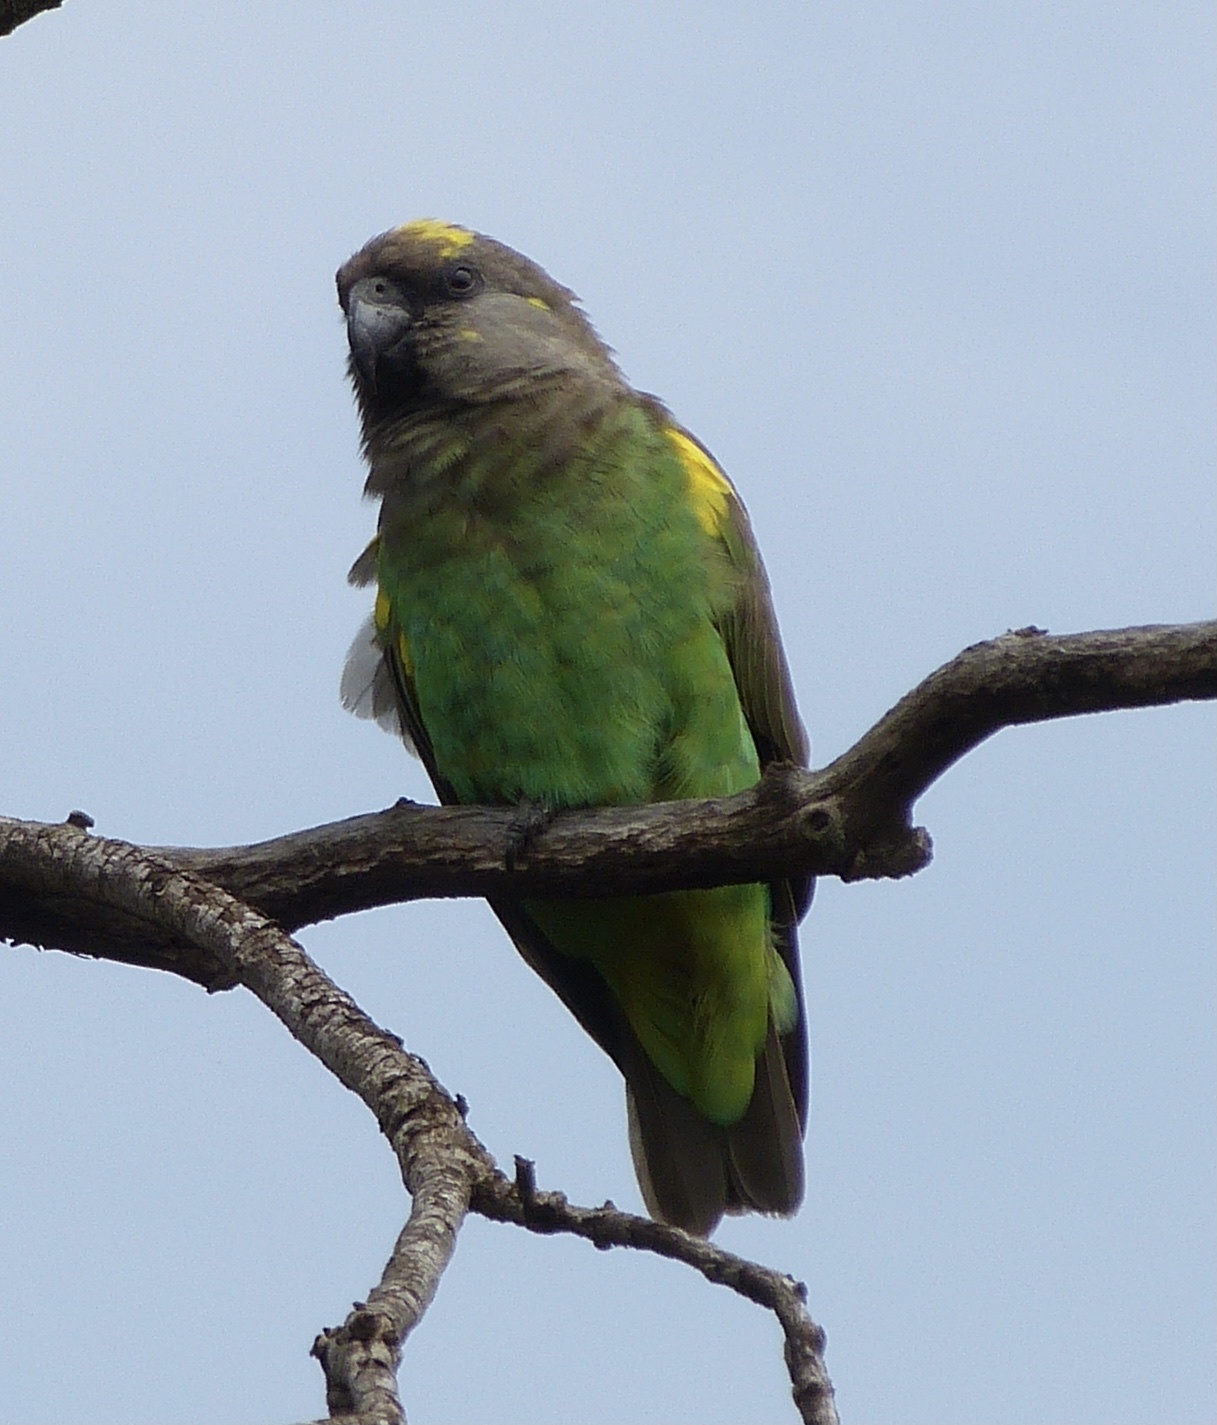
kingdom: Animalia
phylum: Chordata
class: Aves
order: Psittaciformes
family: Psittacidae
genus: Poicephalus
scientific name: Poicephalus meyeri
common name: Meyer's parrot
